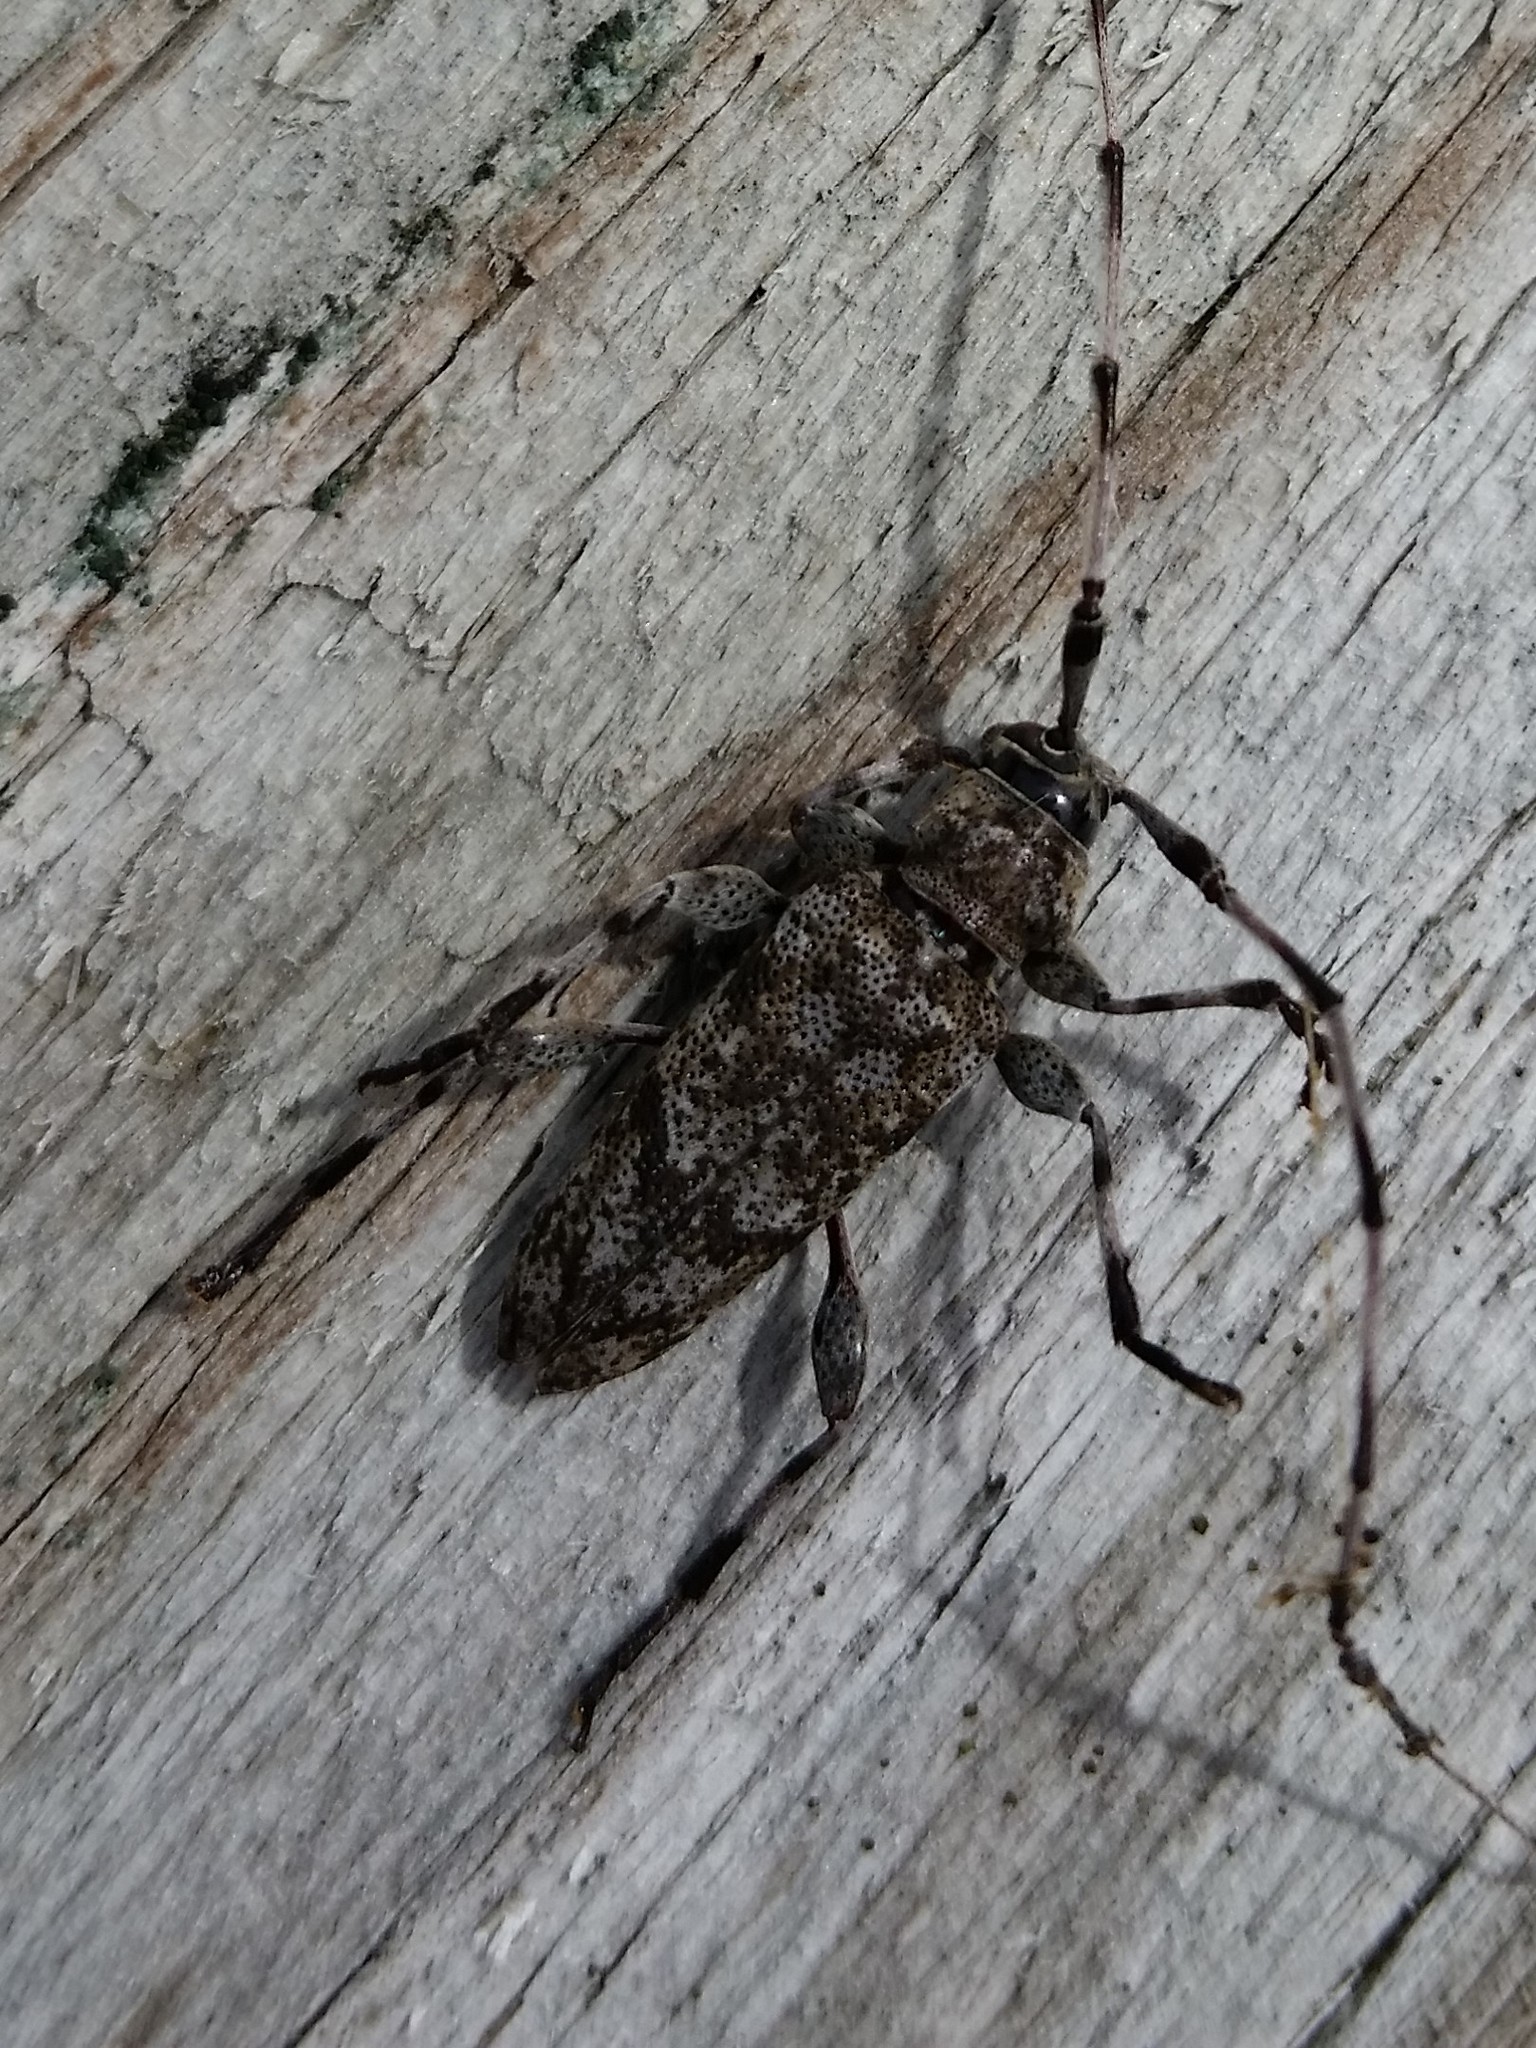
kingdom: Animalia
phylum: Arthropoda
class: Insecta
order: Coleoptera
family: Cerambycidae
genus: Acanthocinus
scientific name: Acanthocinus obsoletus
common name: Roundheaded borer
